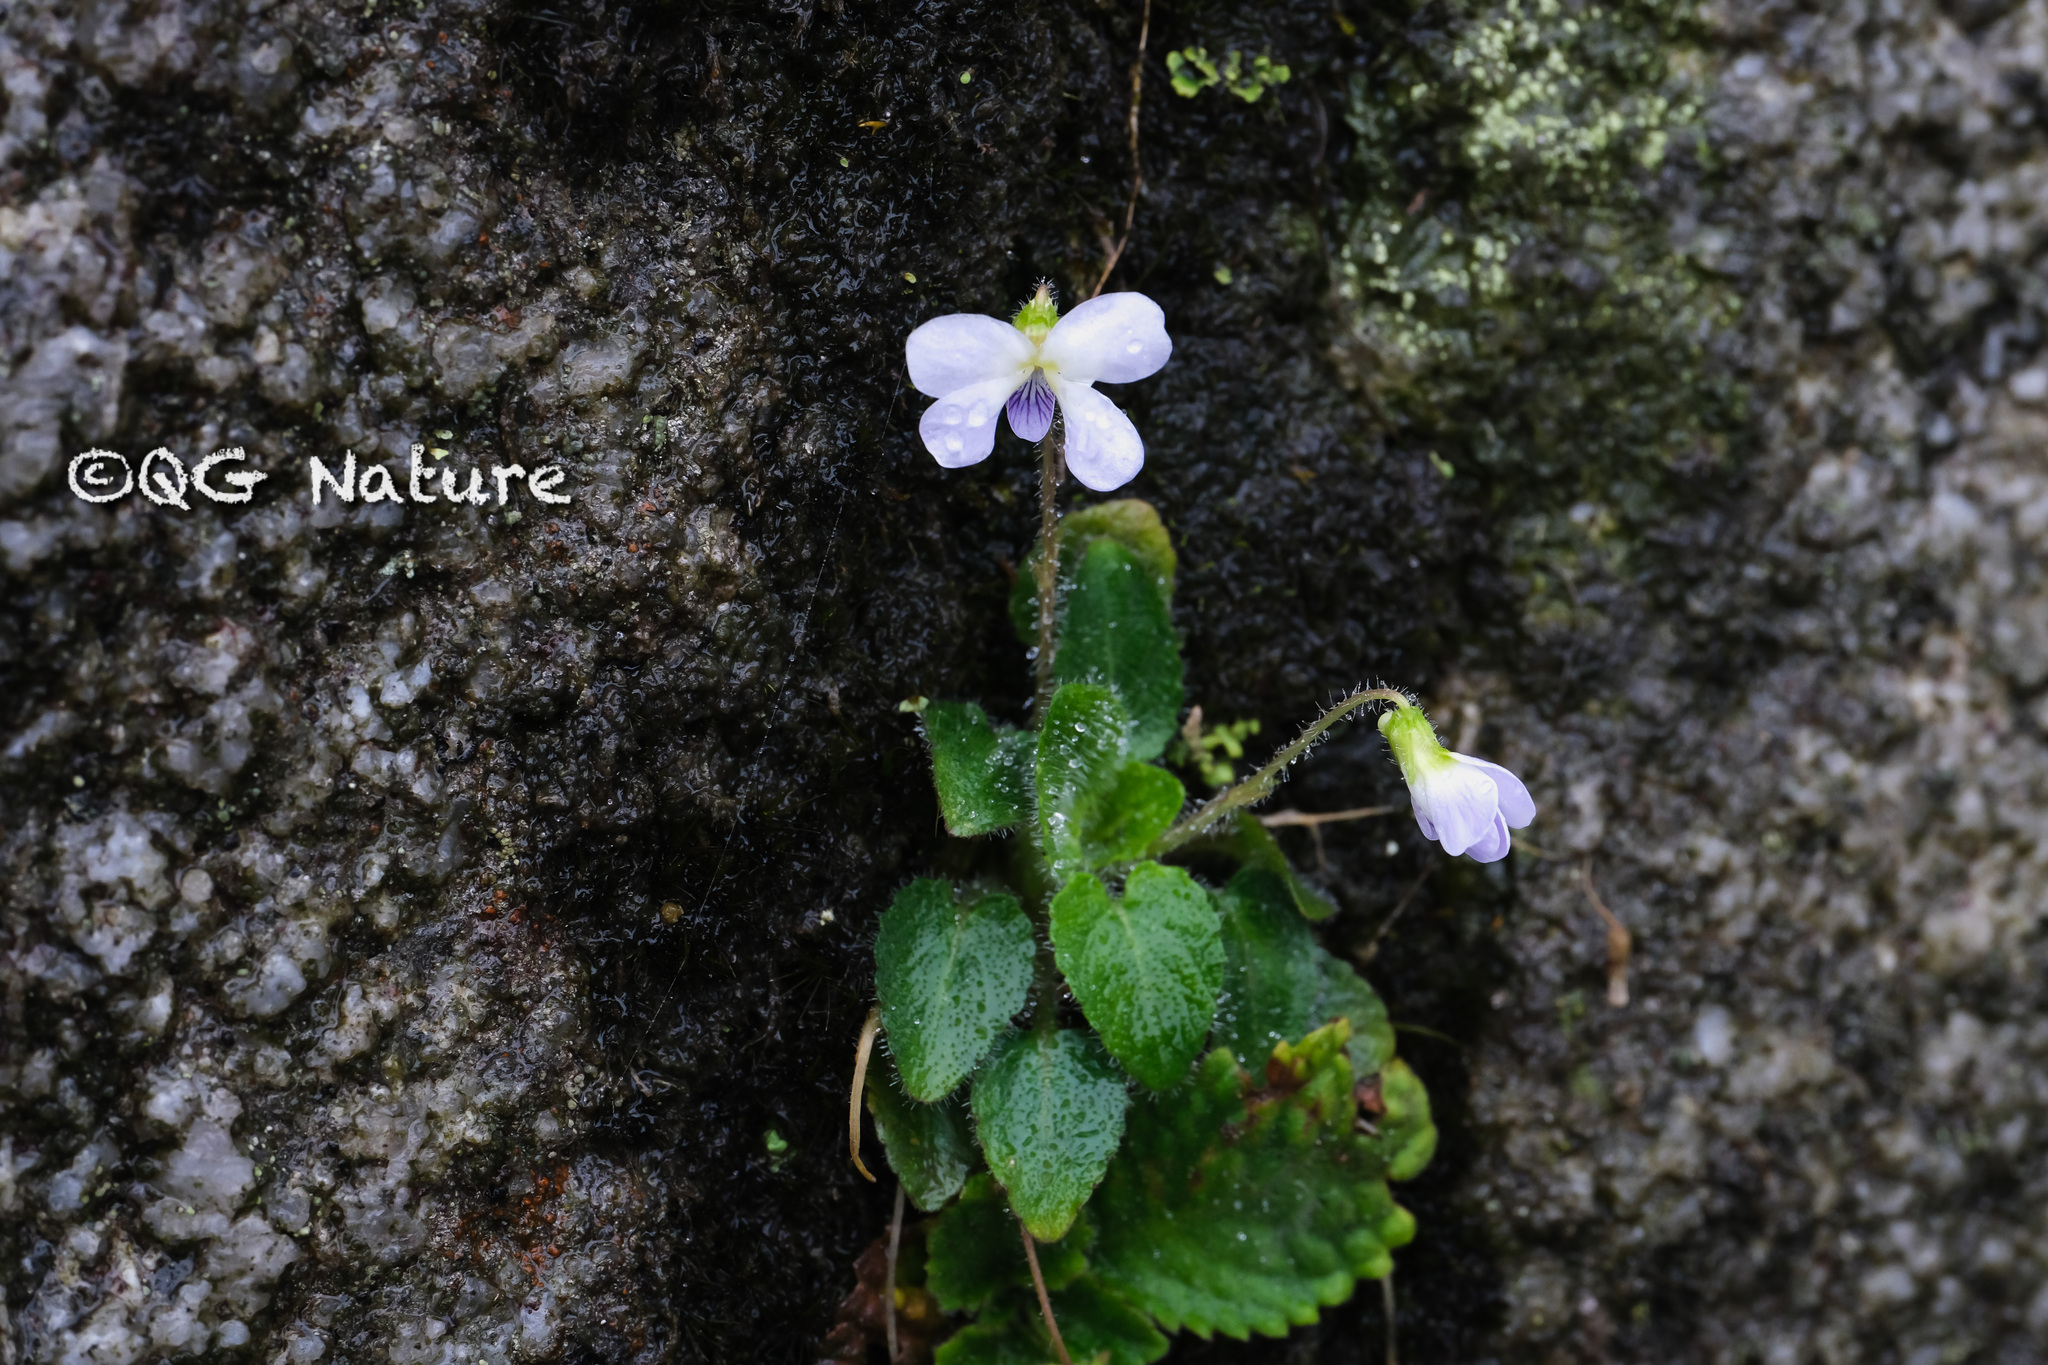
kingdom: Plantae
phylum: Tracheophyta
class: Magnoliopsida
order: Malpighiales
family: Violaceae
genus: Viola
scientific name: Viola diffusa
